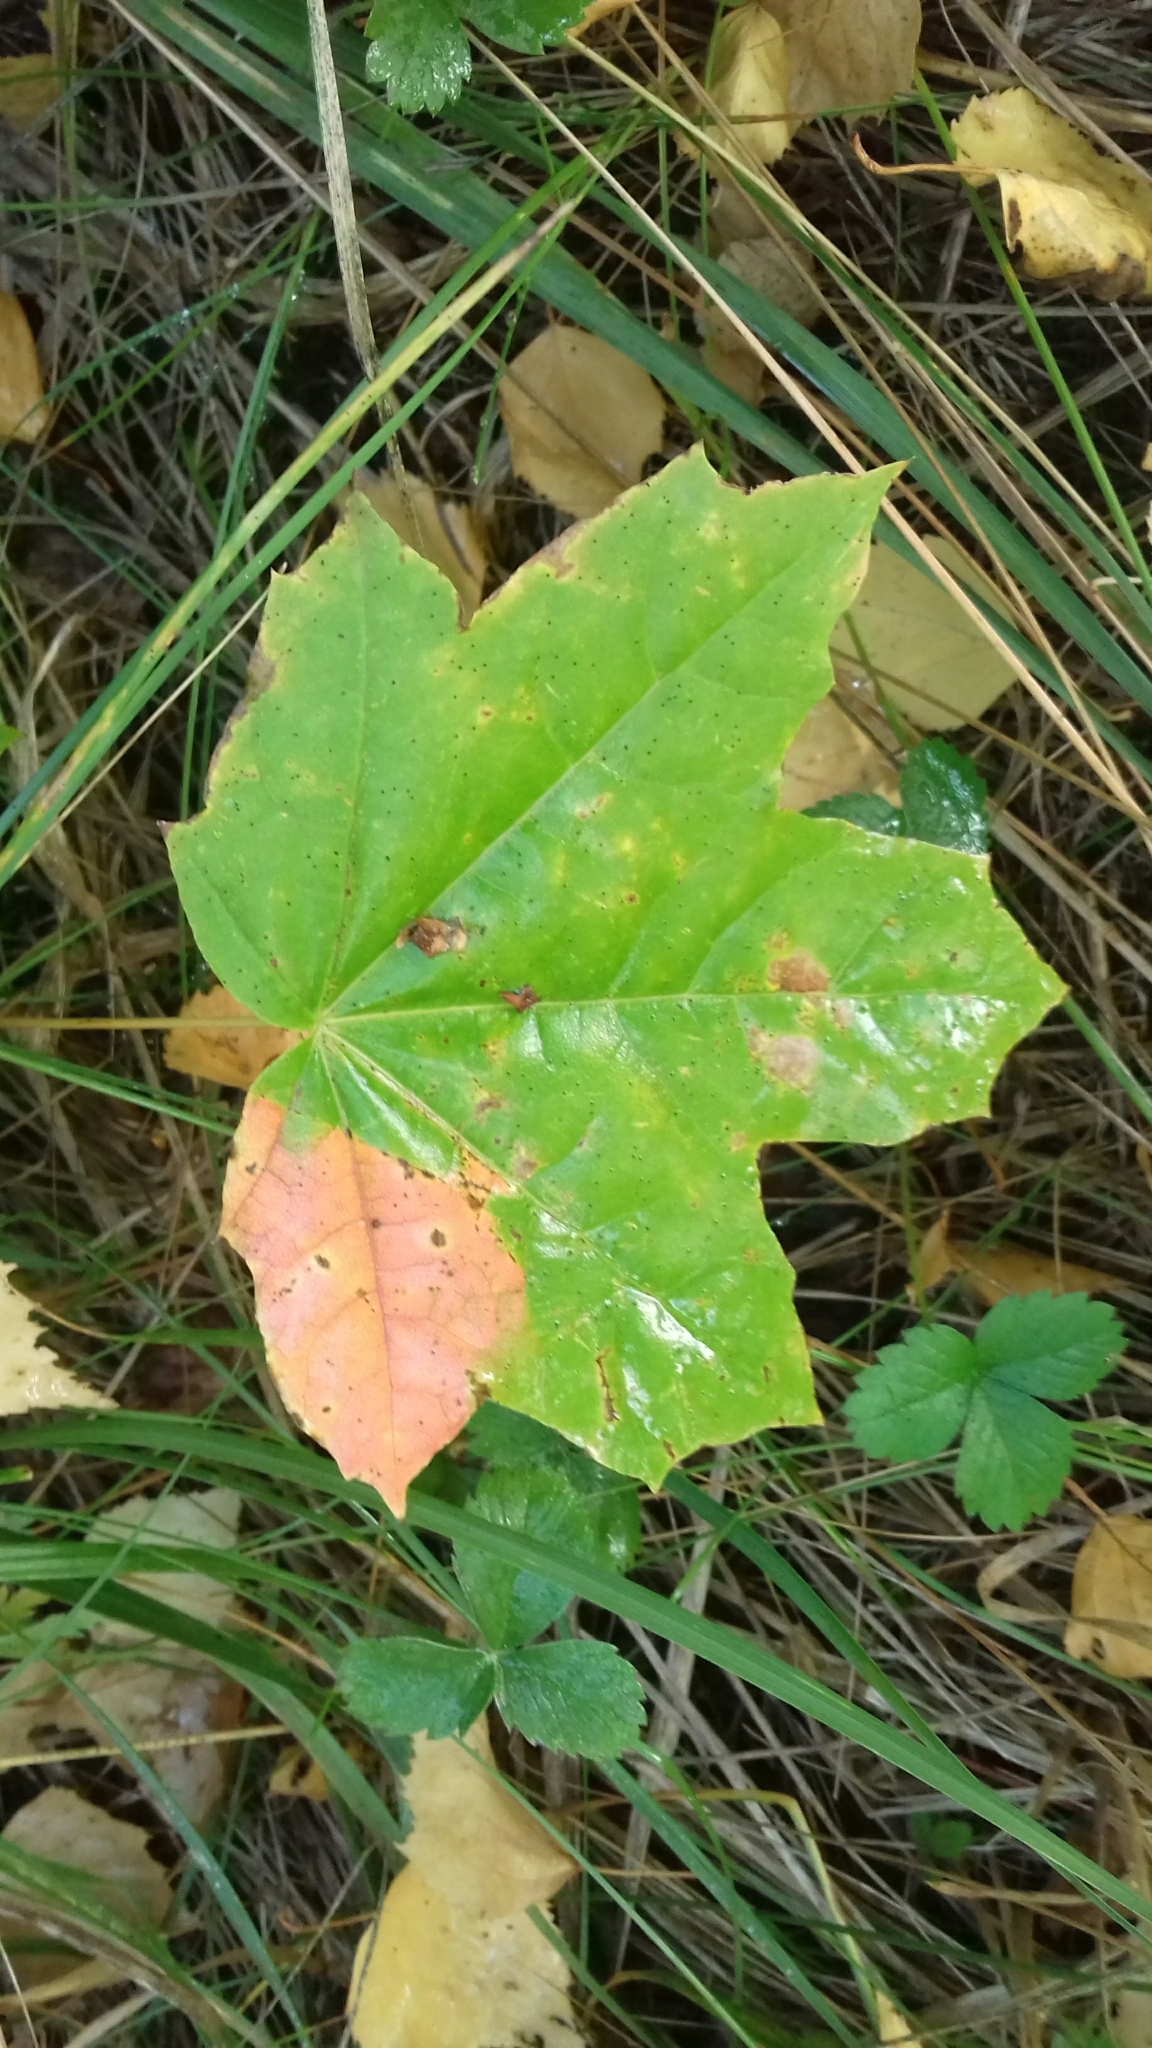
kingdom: Plantae
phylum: Tracheophyta
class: Magnoliopsida
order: Sapindales
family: Sapindaceae
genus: Acer
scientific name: Acer platanoides
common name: Norway maple
